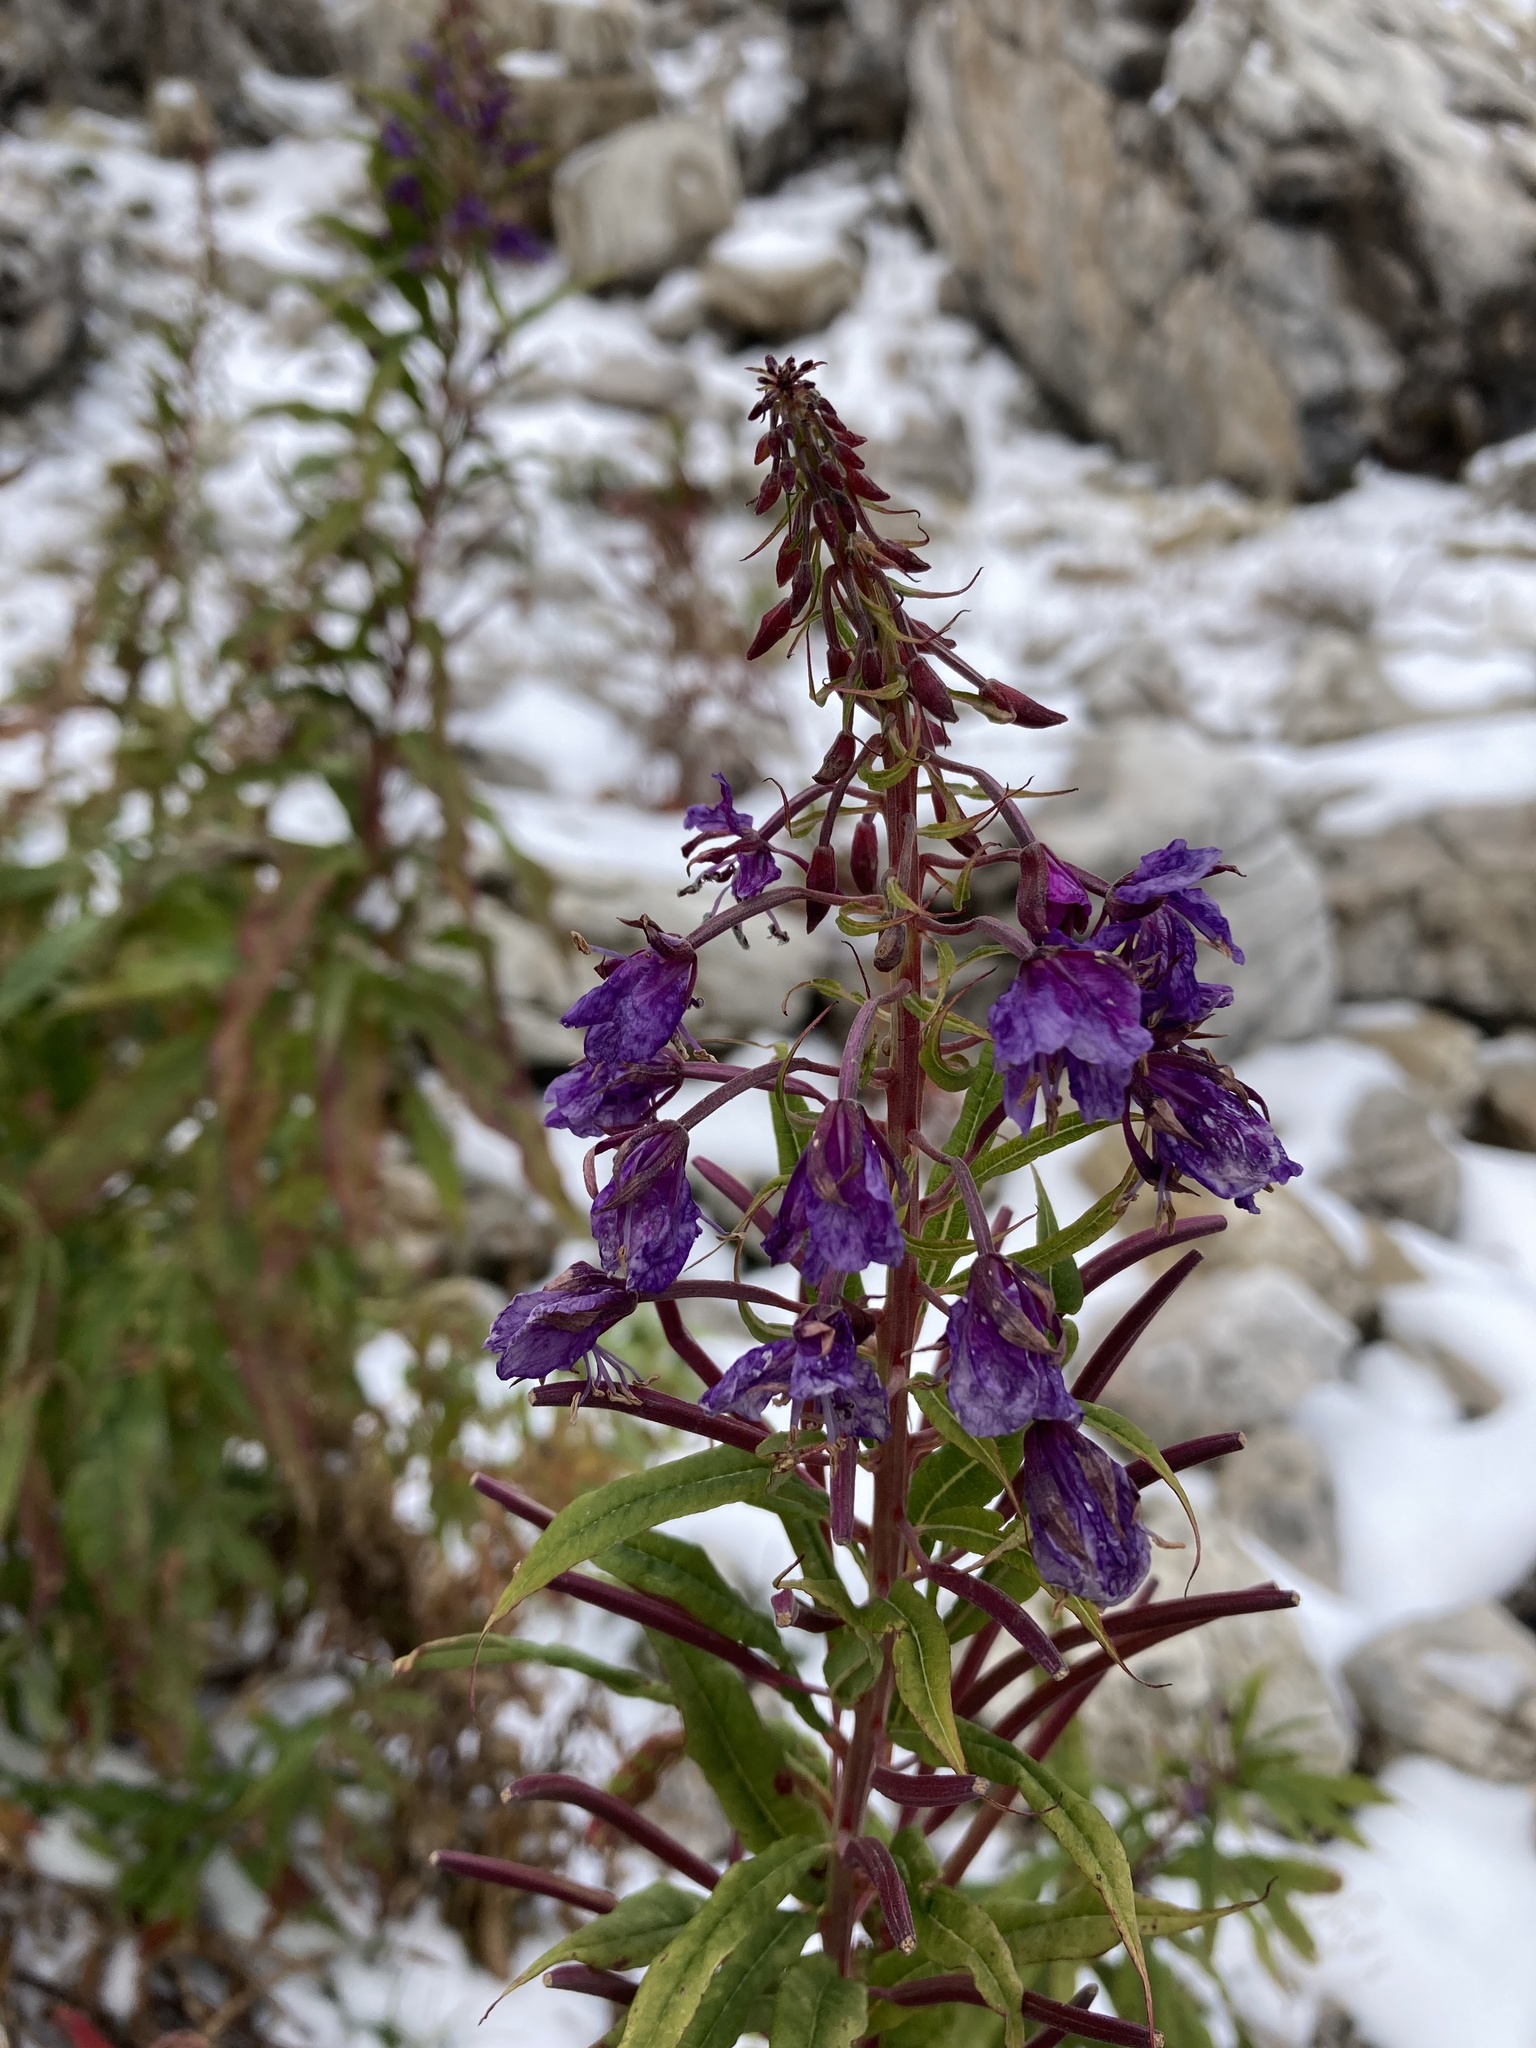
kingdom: Plantae
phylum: Tracheophyta
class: Magnoliopsida
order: Myrtales
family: Onagraceae
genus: Chamaenerion
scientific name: Chamaenerion angustifolium
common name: Fireweed
